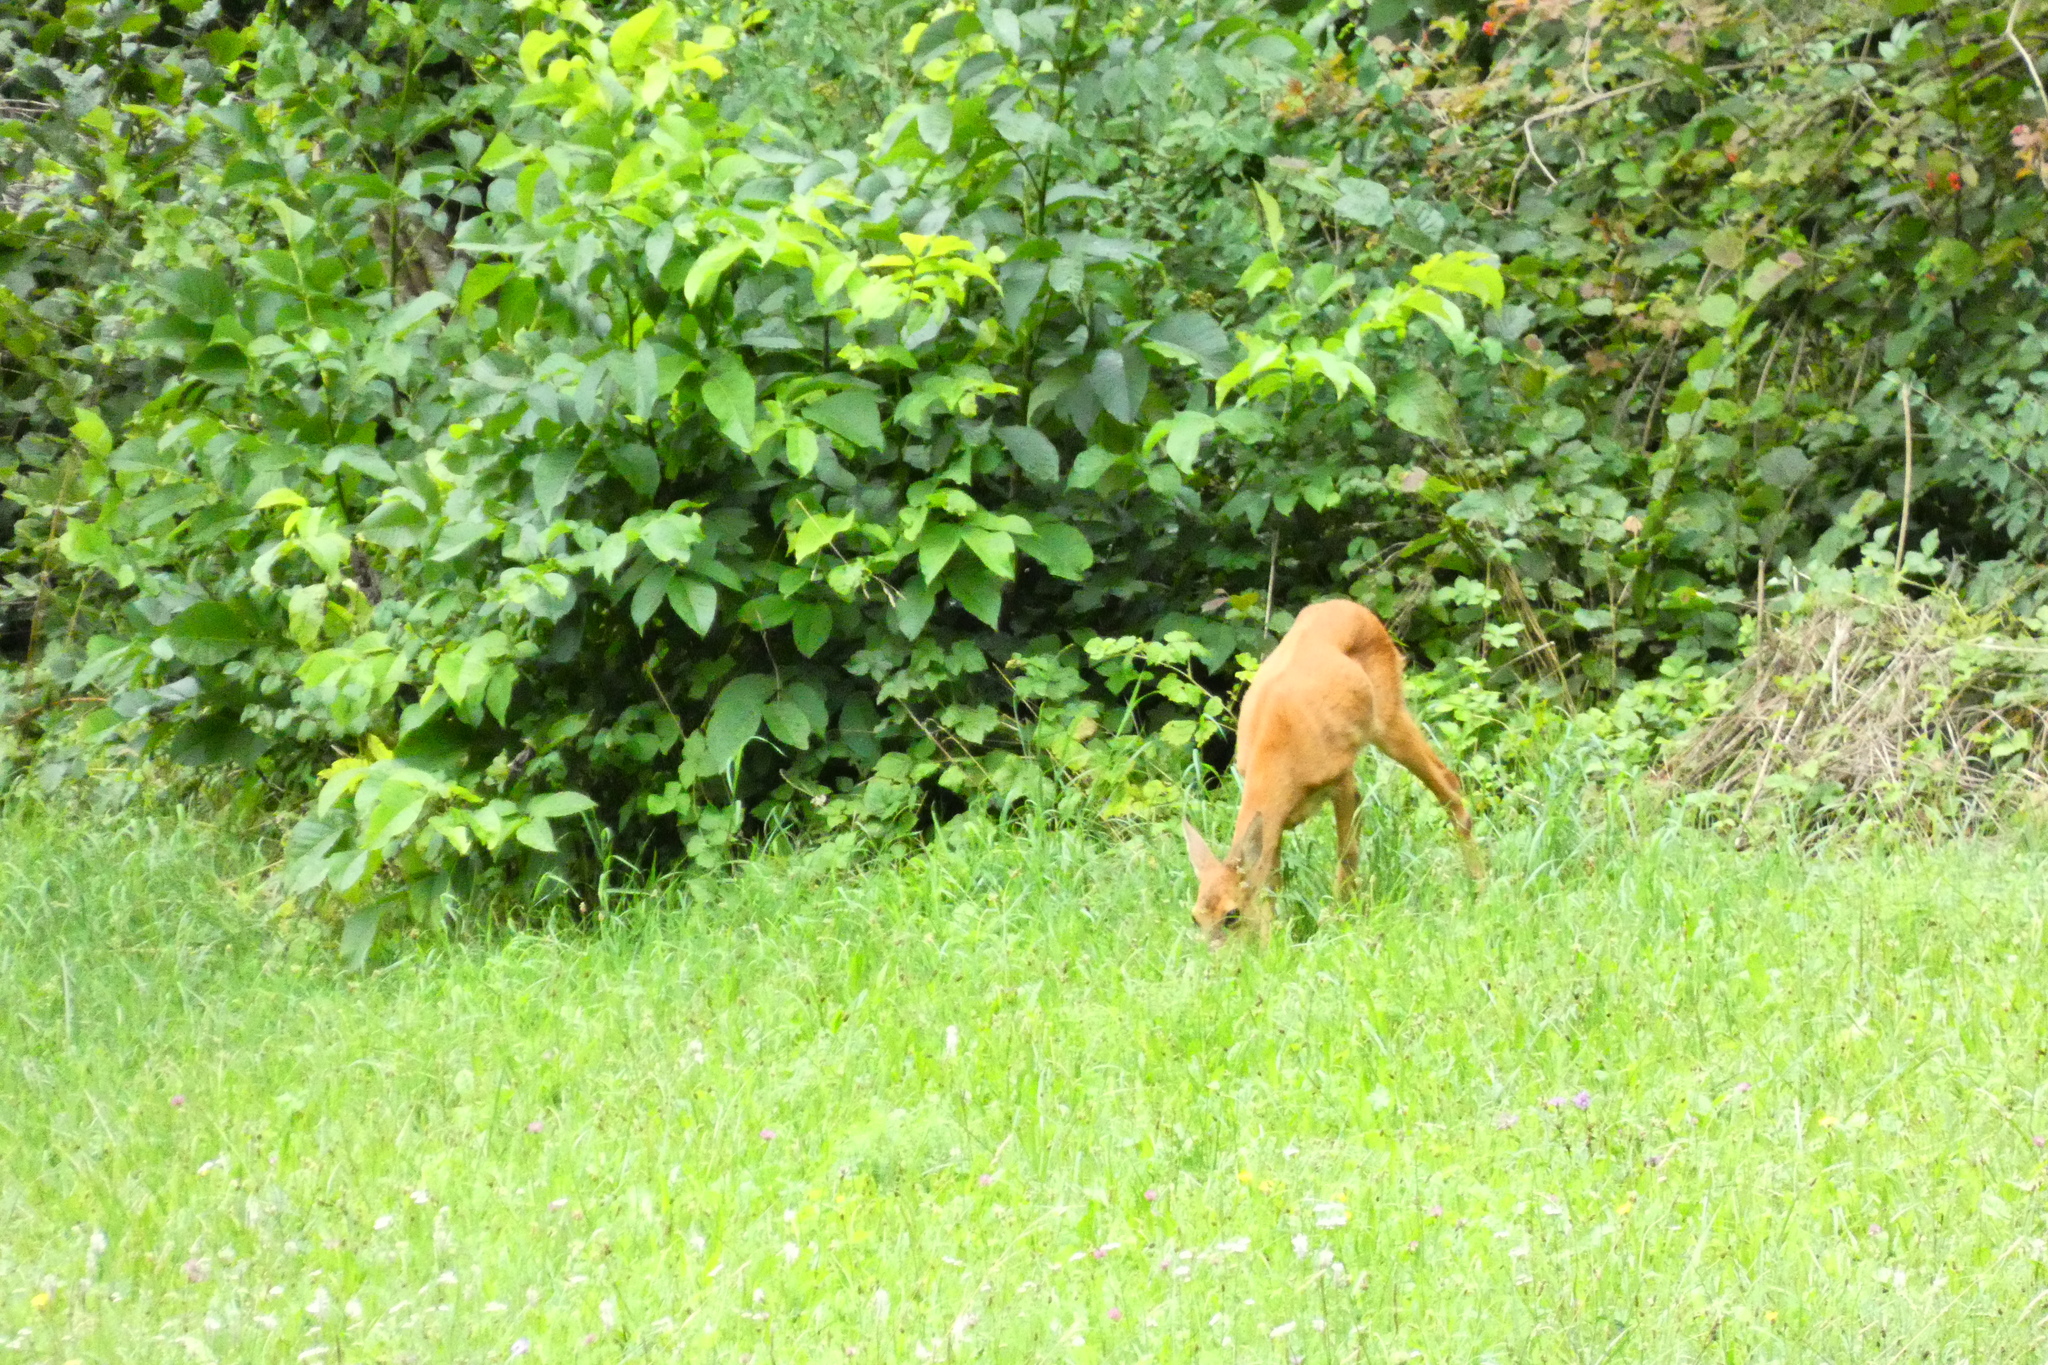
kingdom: Animalia
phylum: Chordata
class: Mammalia
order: Artiodactyla
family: Cervidae
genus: Capreolus
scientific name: Capreolus capreolus
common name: Western roe deer
